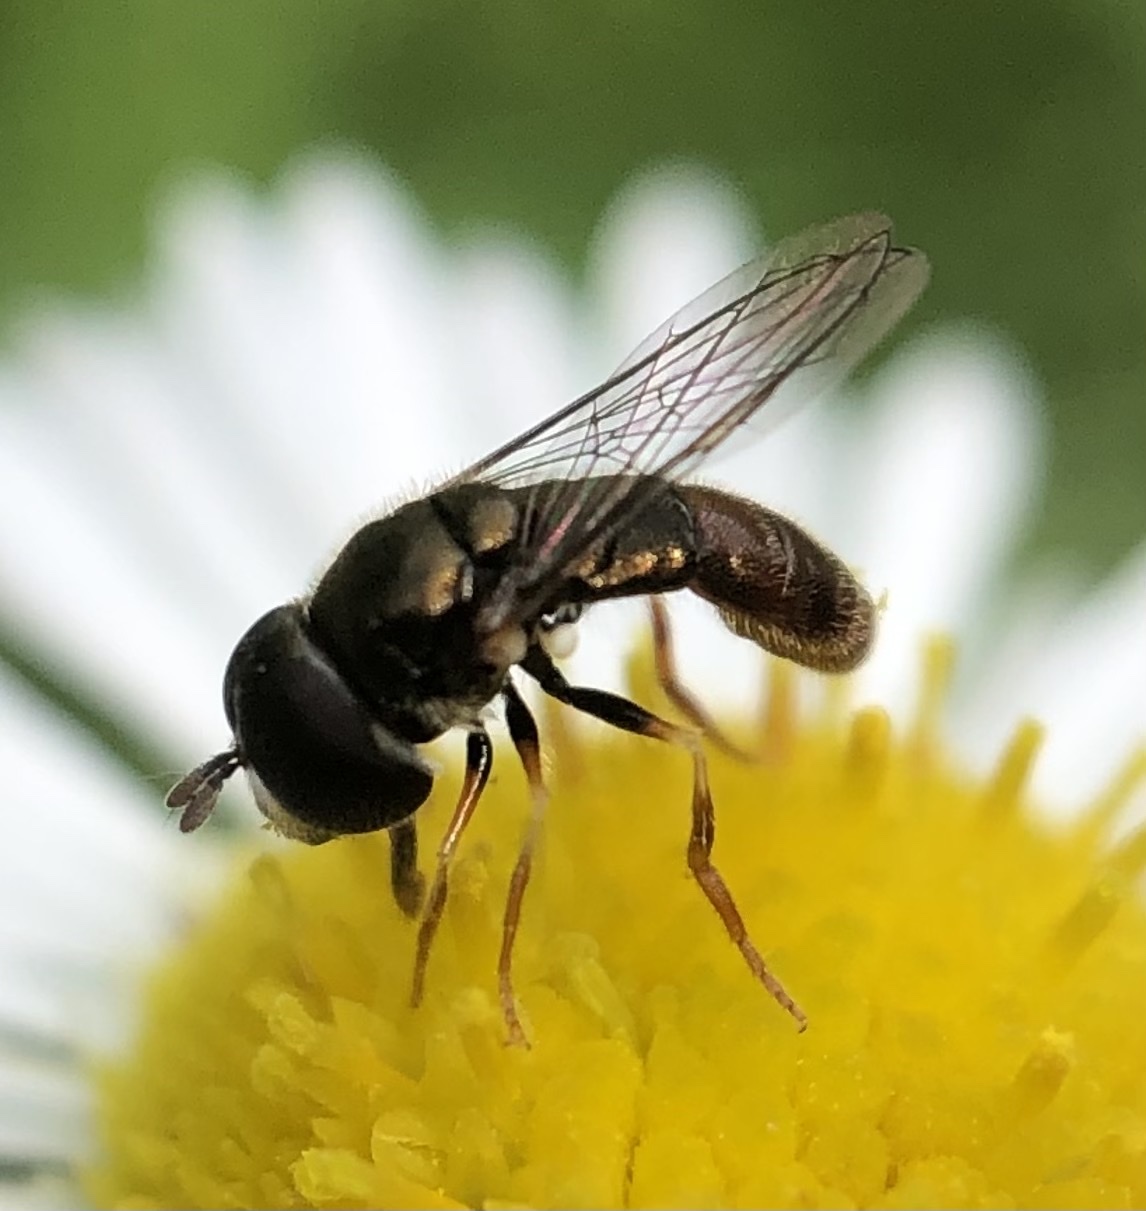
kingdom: Animalia
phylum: Arthropoda
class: Insecta
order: Diptera
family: Syrphidae
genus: Paragus
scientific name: Paragus haemorrhous
